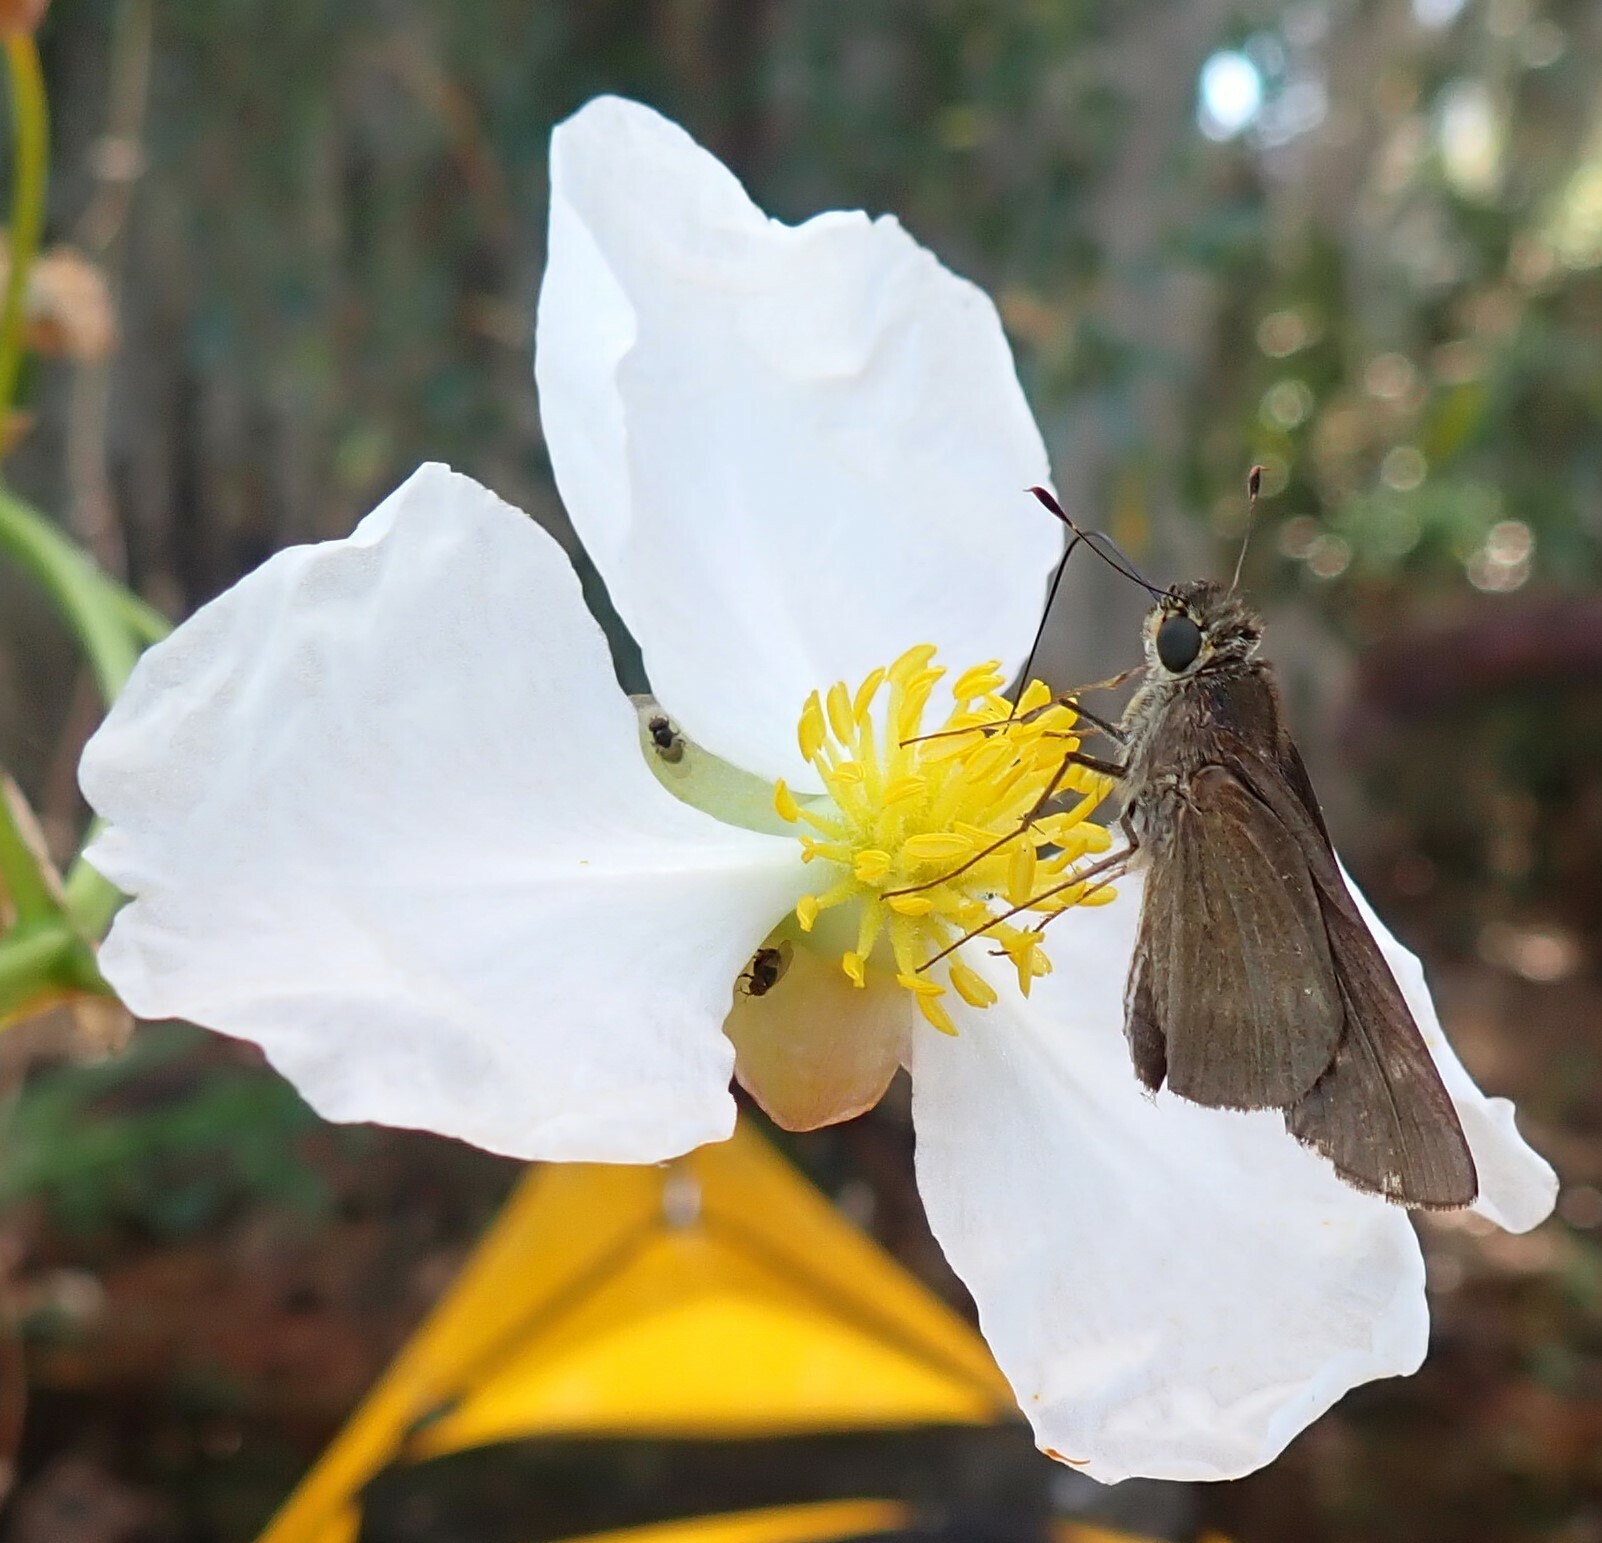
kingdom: Animalia
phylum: Arthropoda
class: Insecta
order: Lepidoptera
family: Hesperiidae
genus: Panoquina
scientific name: Panoquina ocola
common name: Ocola skipper
